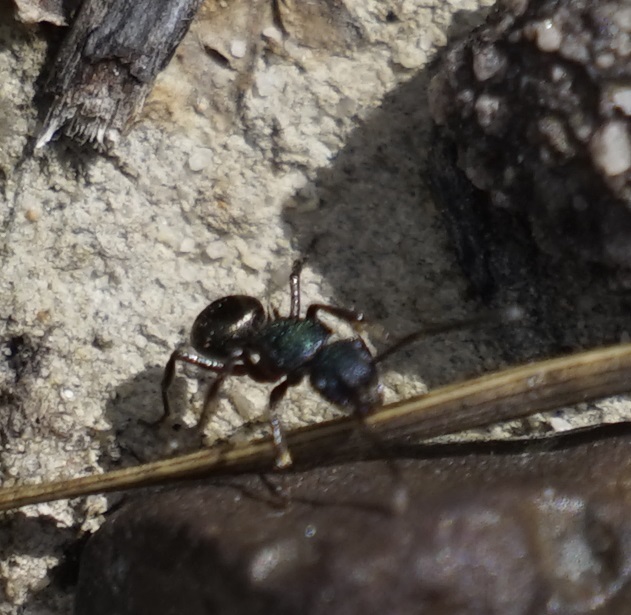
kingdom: Animalia
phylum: Arthropoda
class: Insecta
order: Hymenoptera
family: Formicidae
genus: Polyrhachis
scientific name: Polyrhachis hookeri
